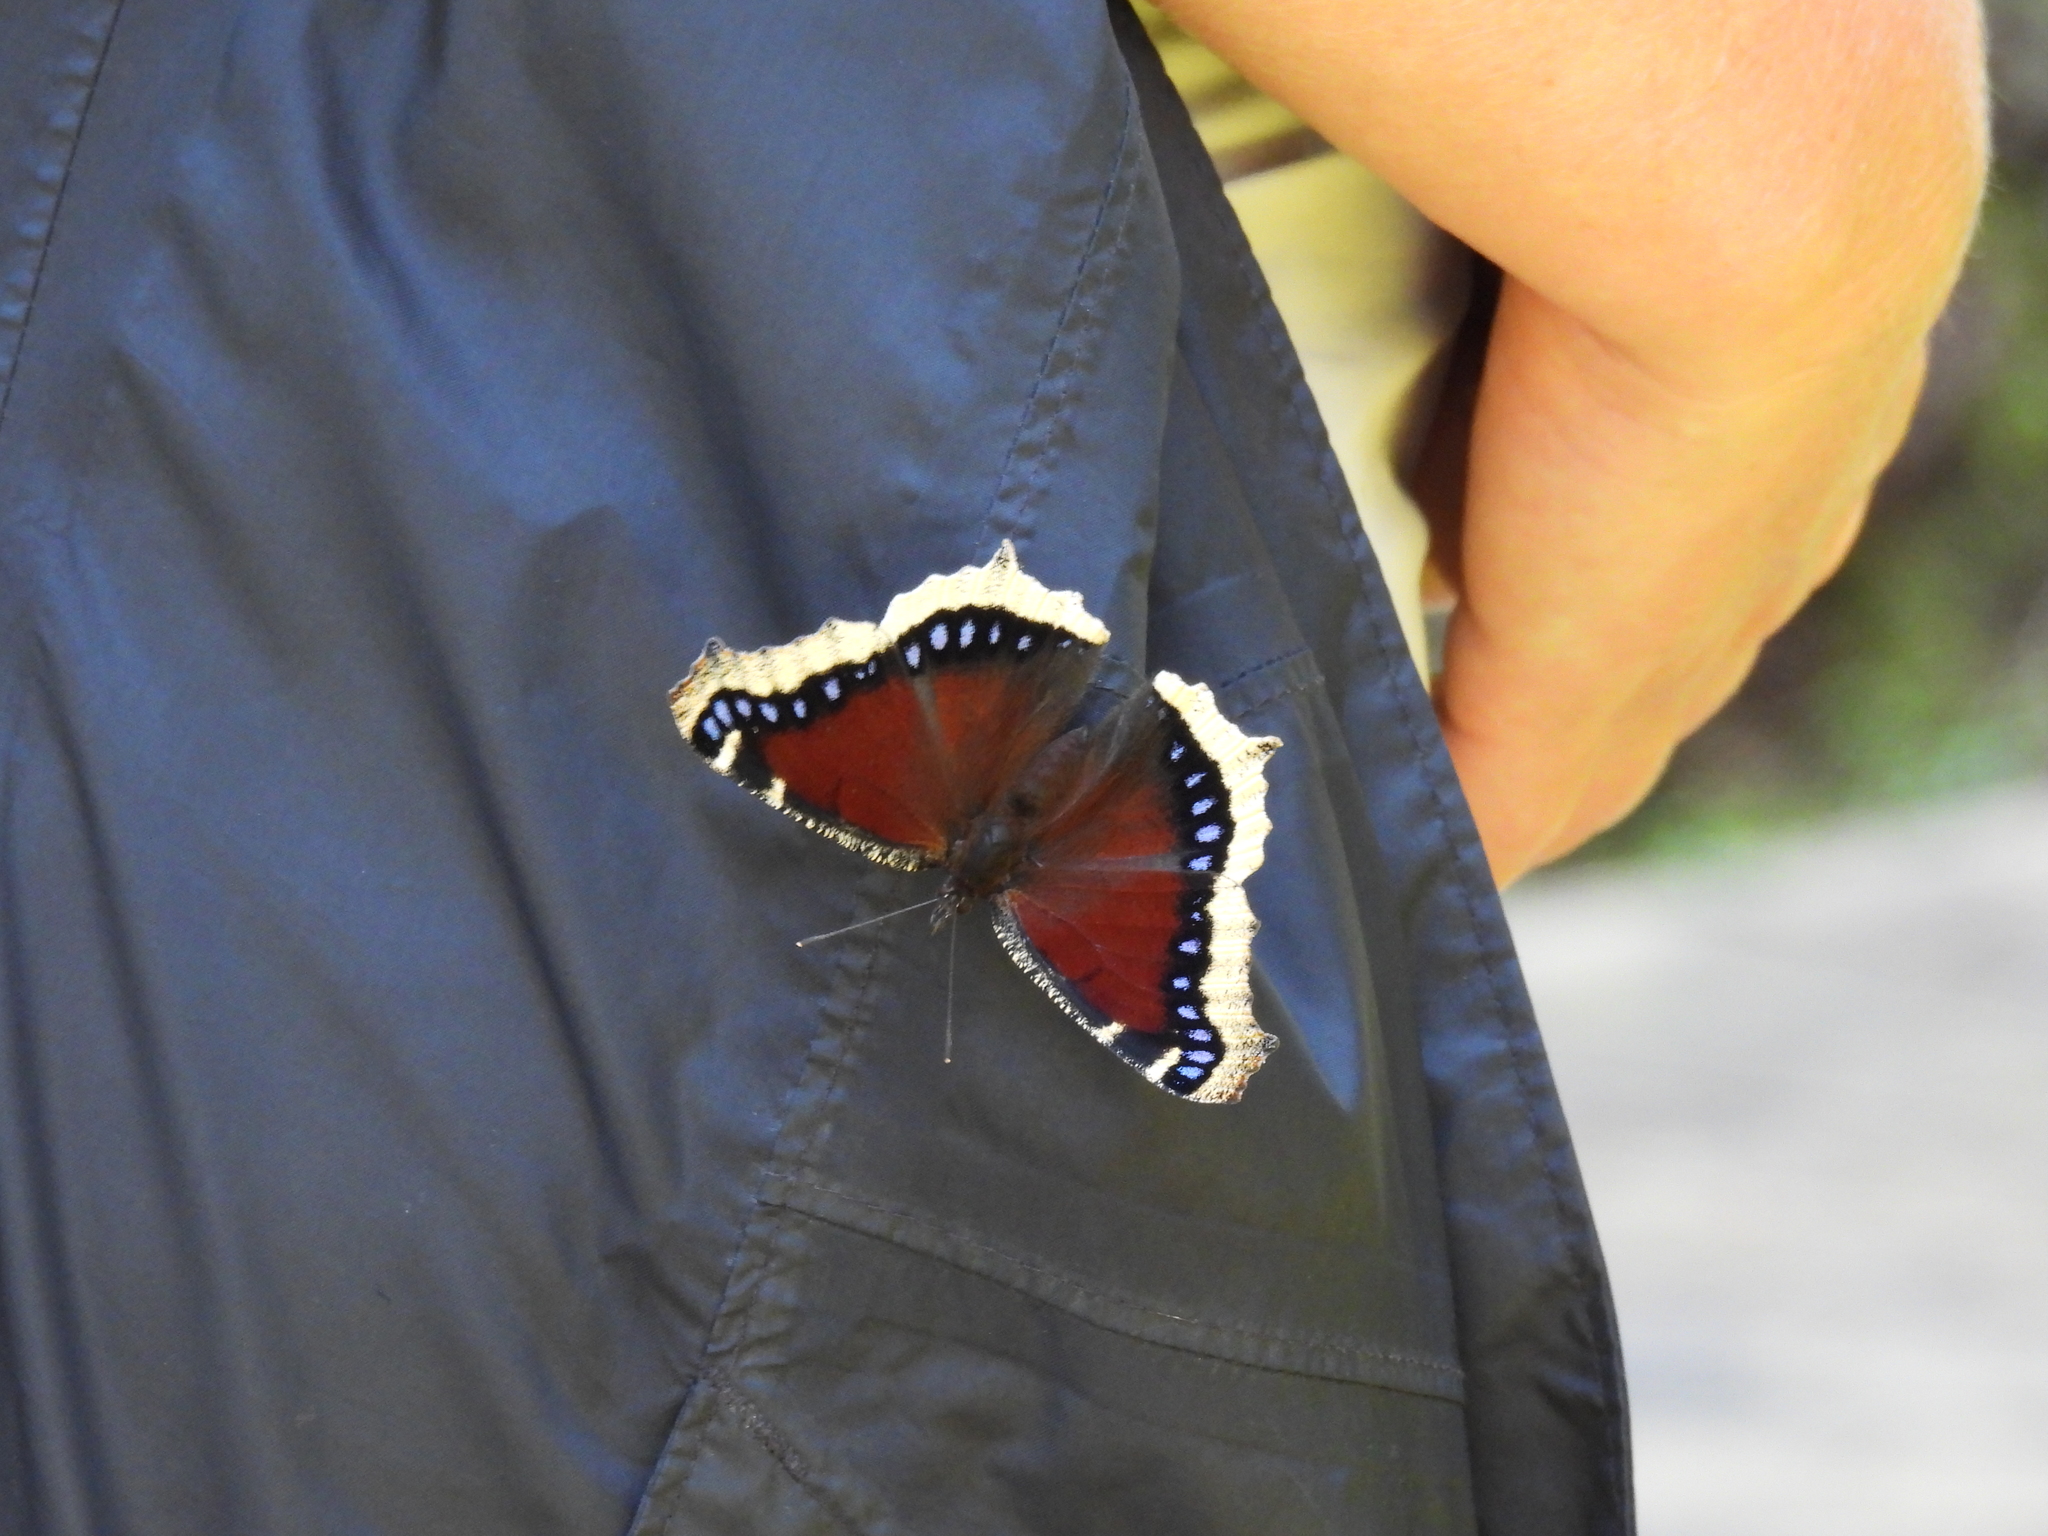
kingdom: Animalia
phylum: Arthropoda
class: Insecta
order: Lepidoptera
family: Nymphalidae
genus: Nymphalis
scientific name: Nymphalis antiopa
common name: Camberwell beauty
